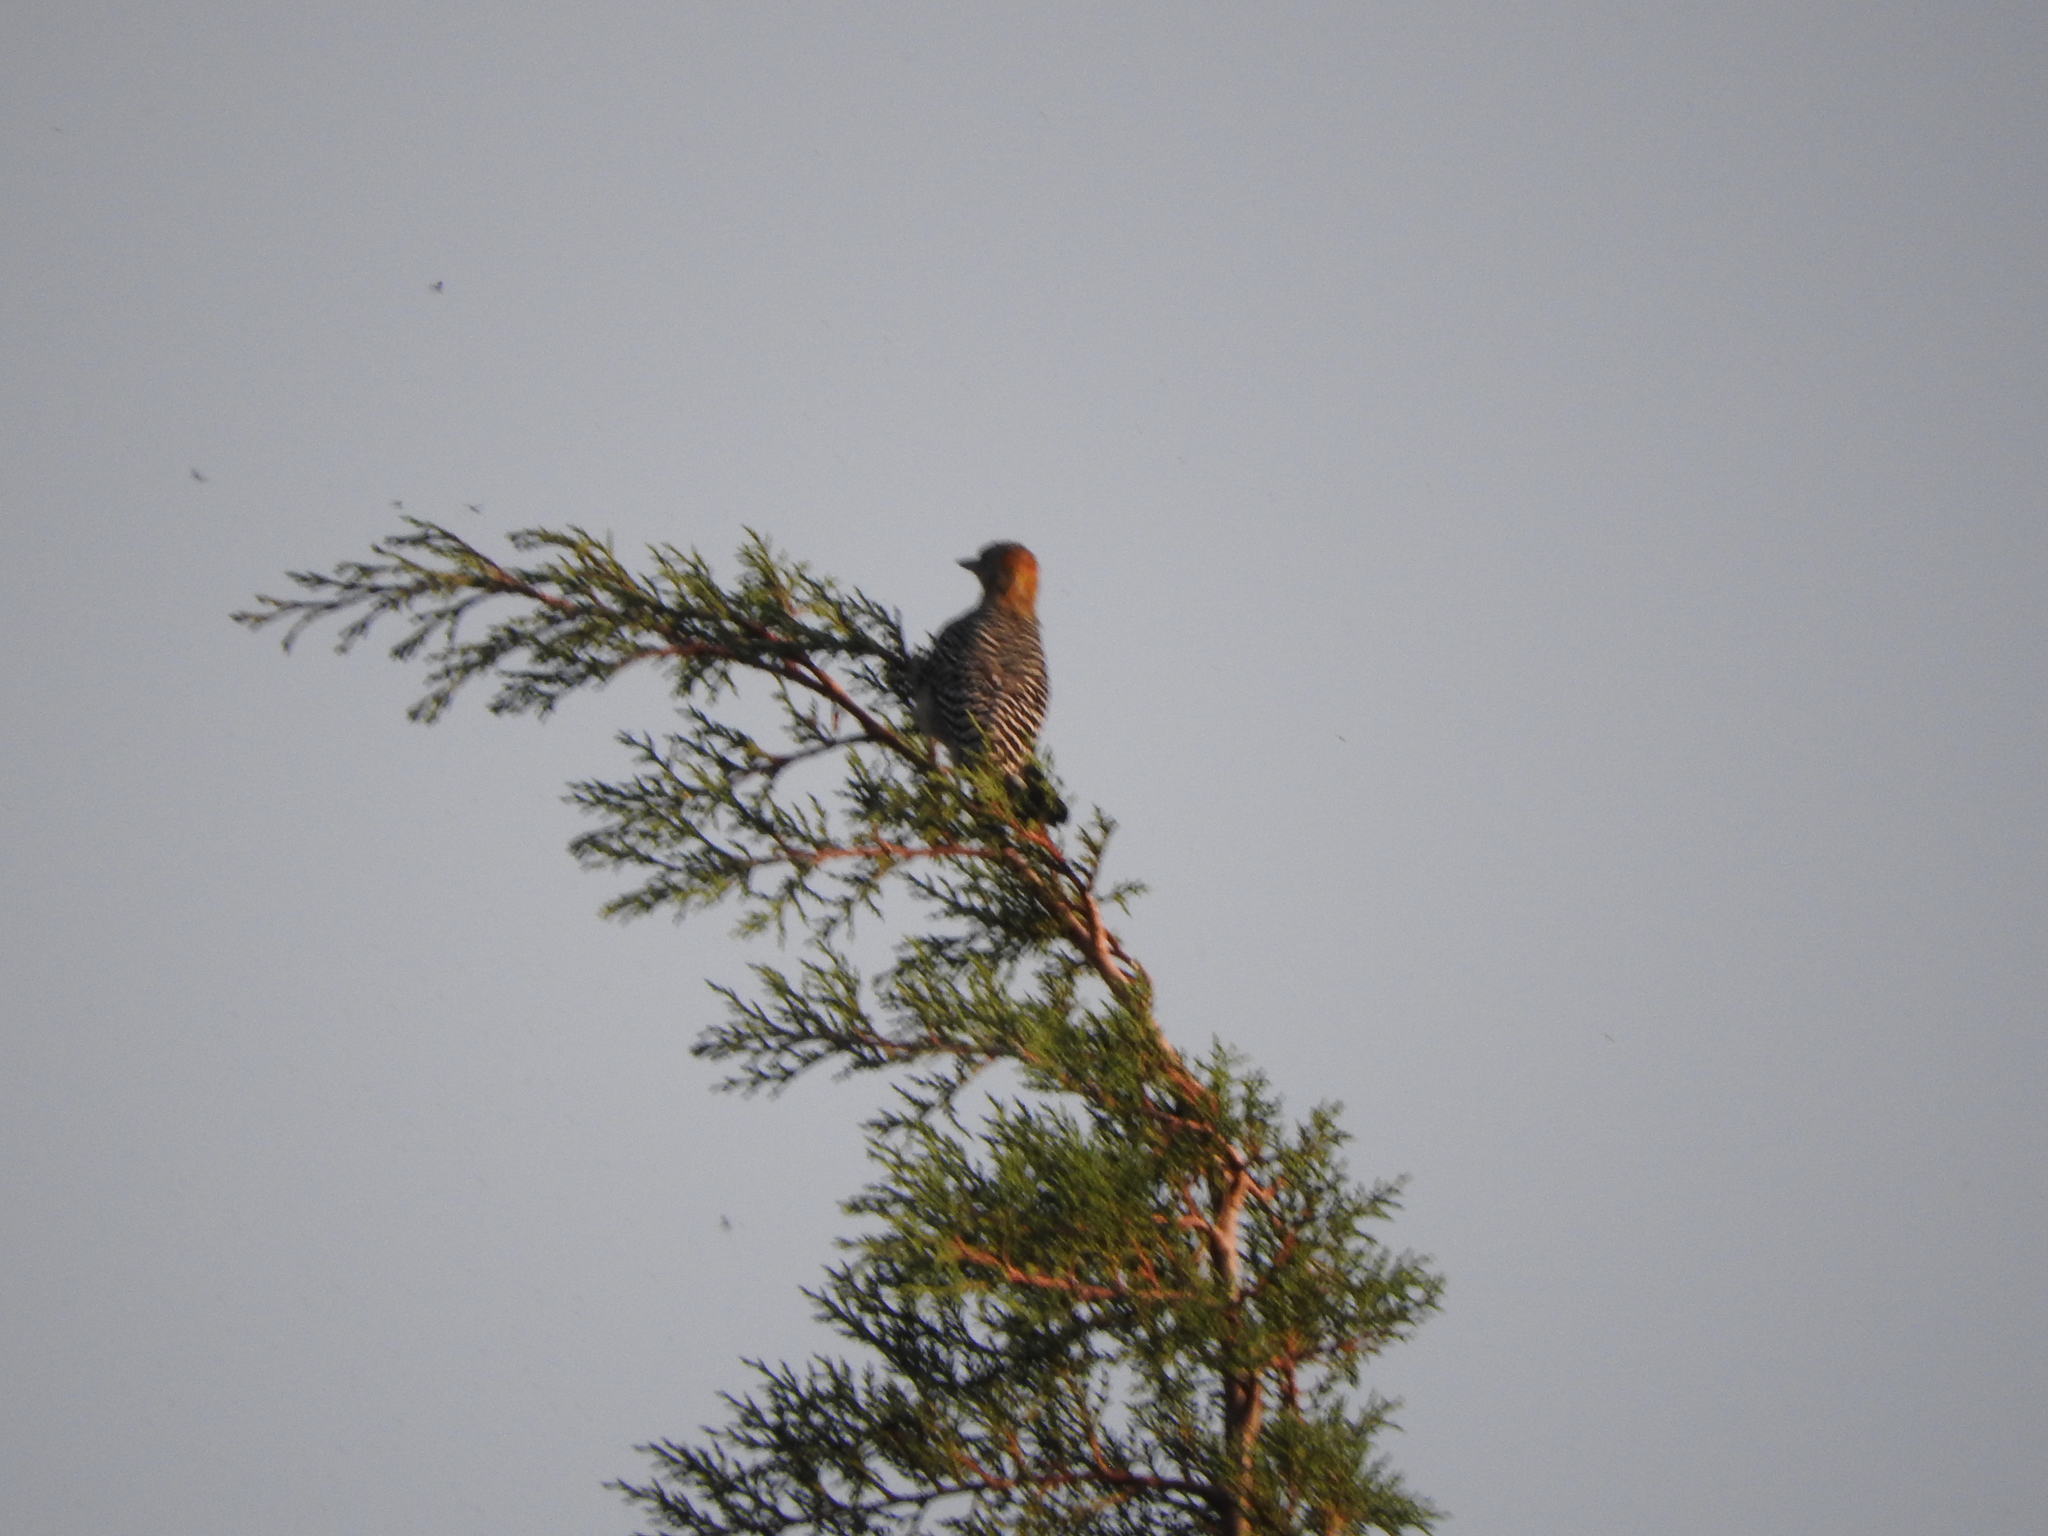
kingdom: Animalia
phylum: Chordata
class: Aves
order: Piciformes
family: Picidae
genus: Melanerpes
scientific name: Melanerpes aurifrons
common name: Golden-fronted woodpecker
